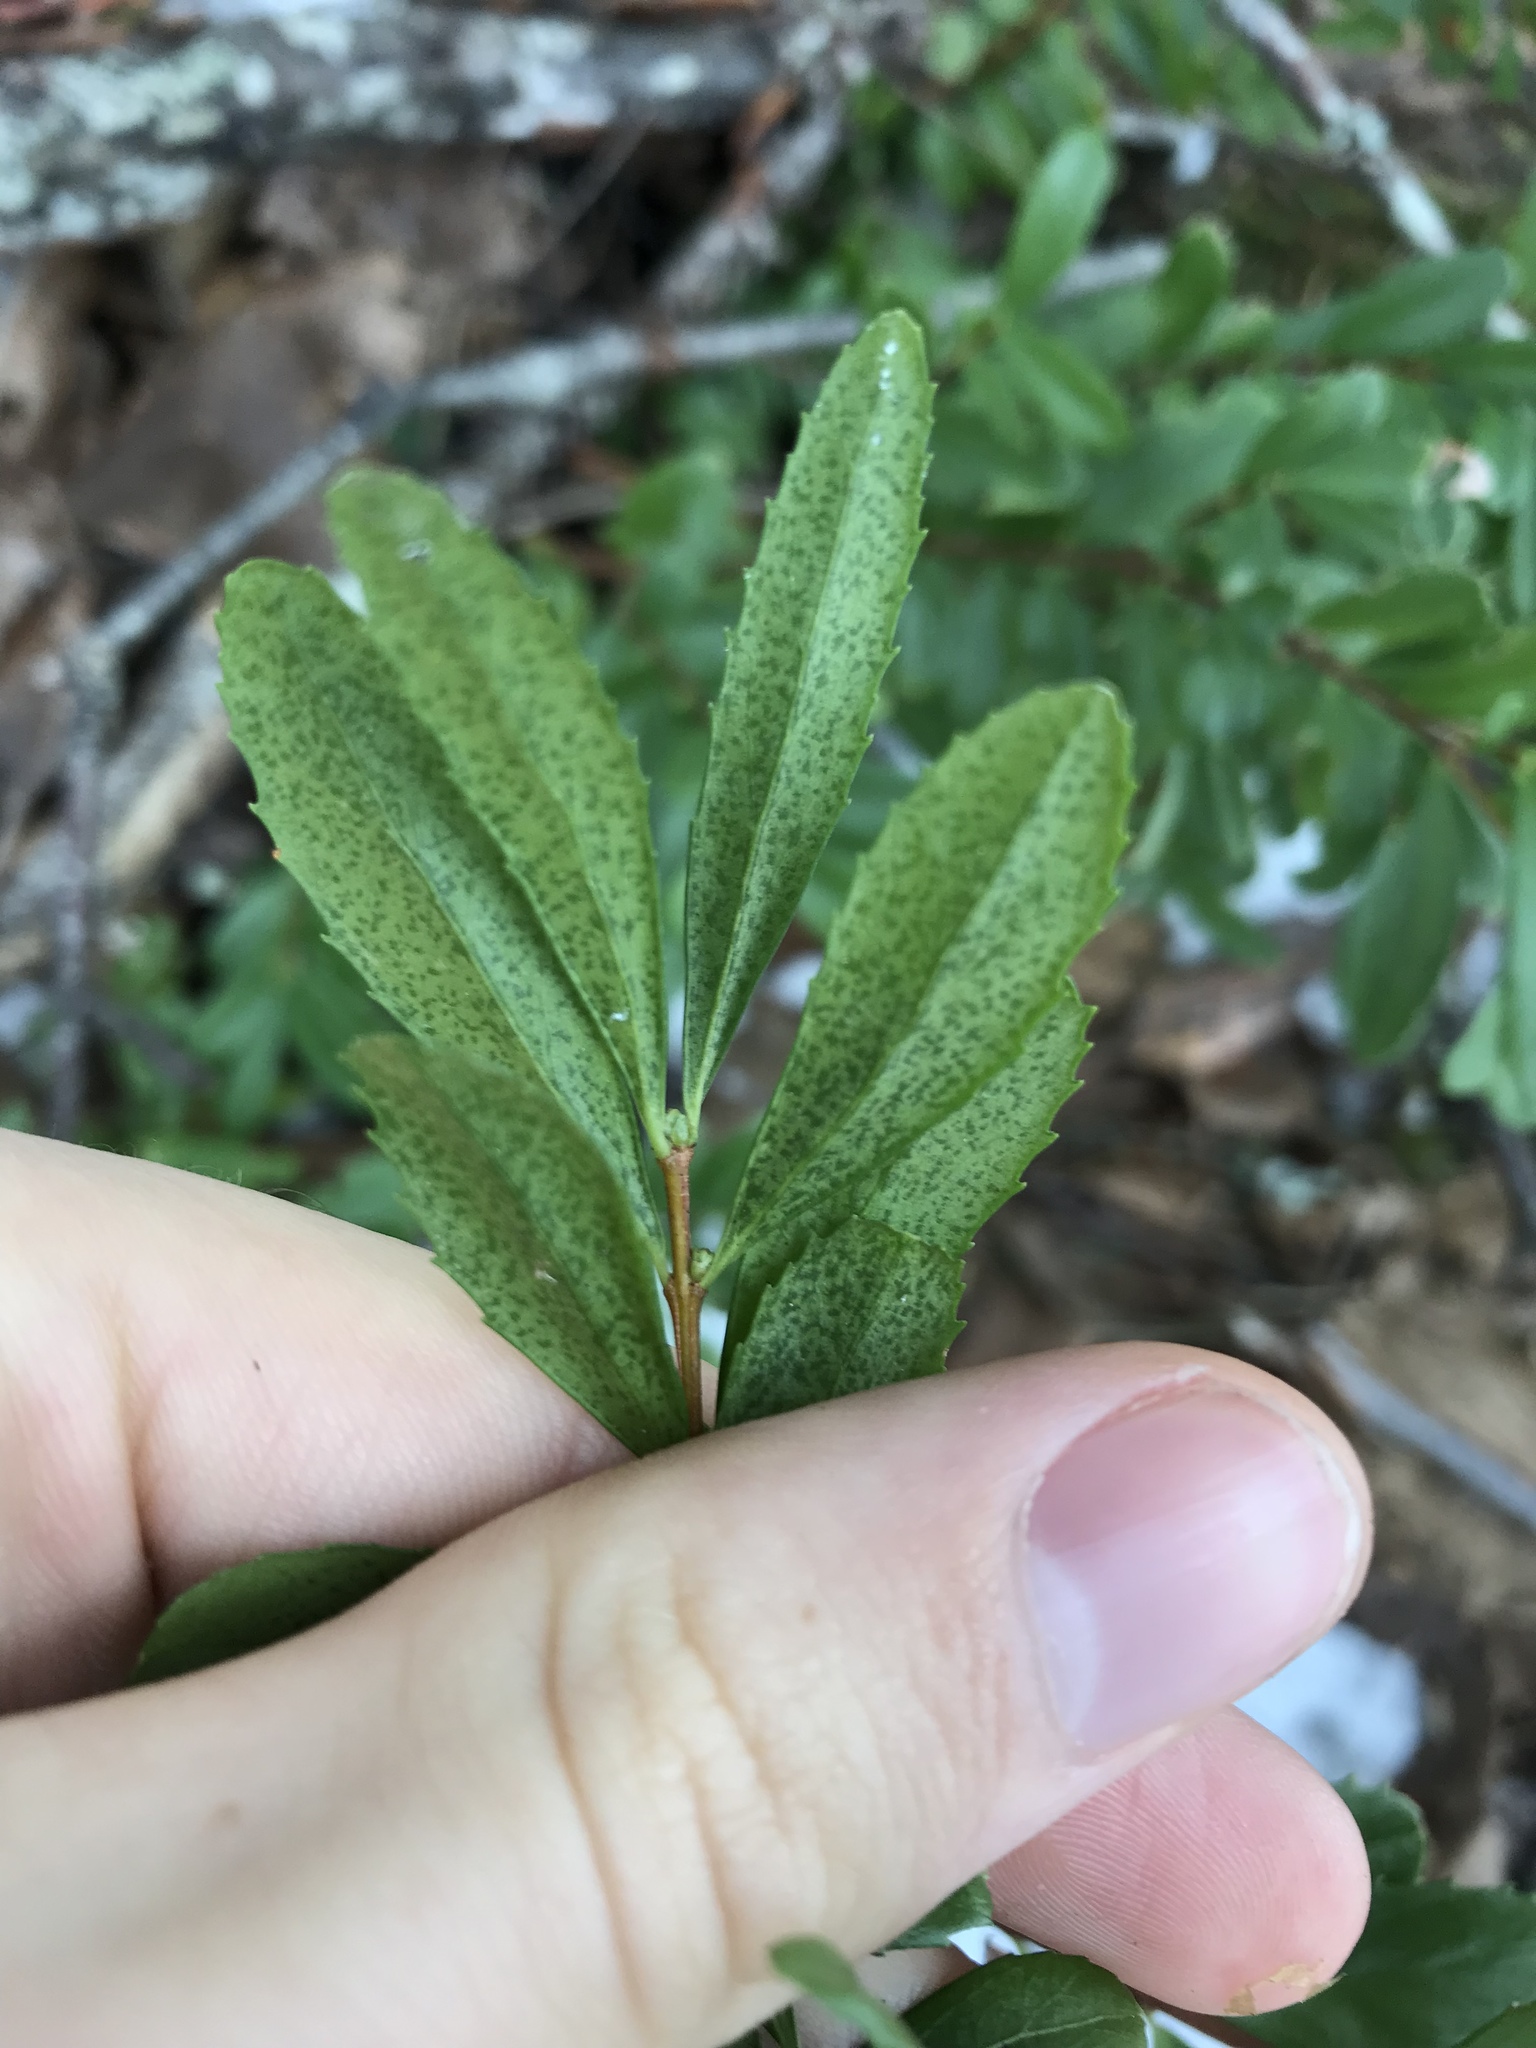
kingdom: Plantae
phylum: Tracheophyta
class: Magnoliopsida
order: Celastrales
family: Celastraceae
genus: Paxistima
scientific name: Paxistima myrsinites
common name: Mountain-lover
